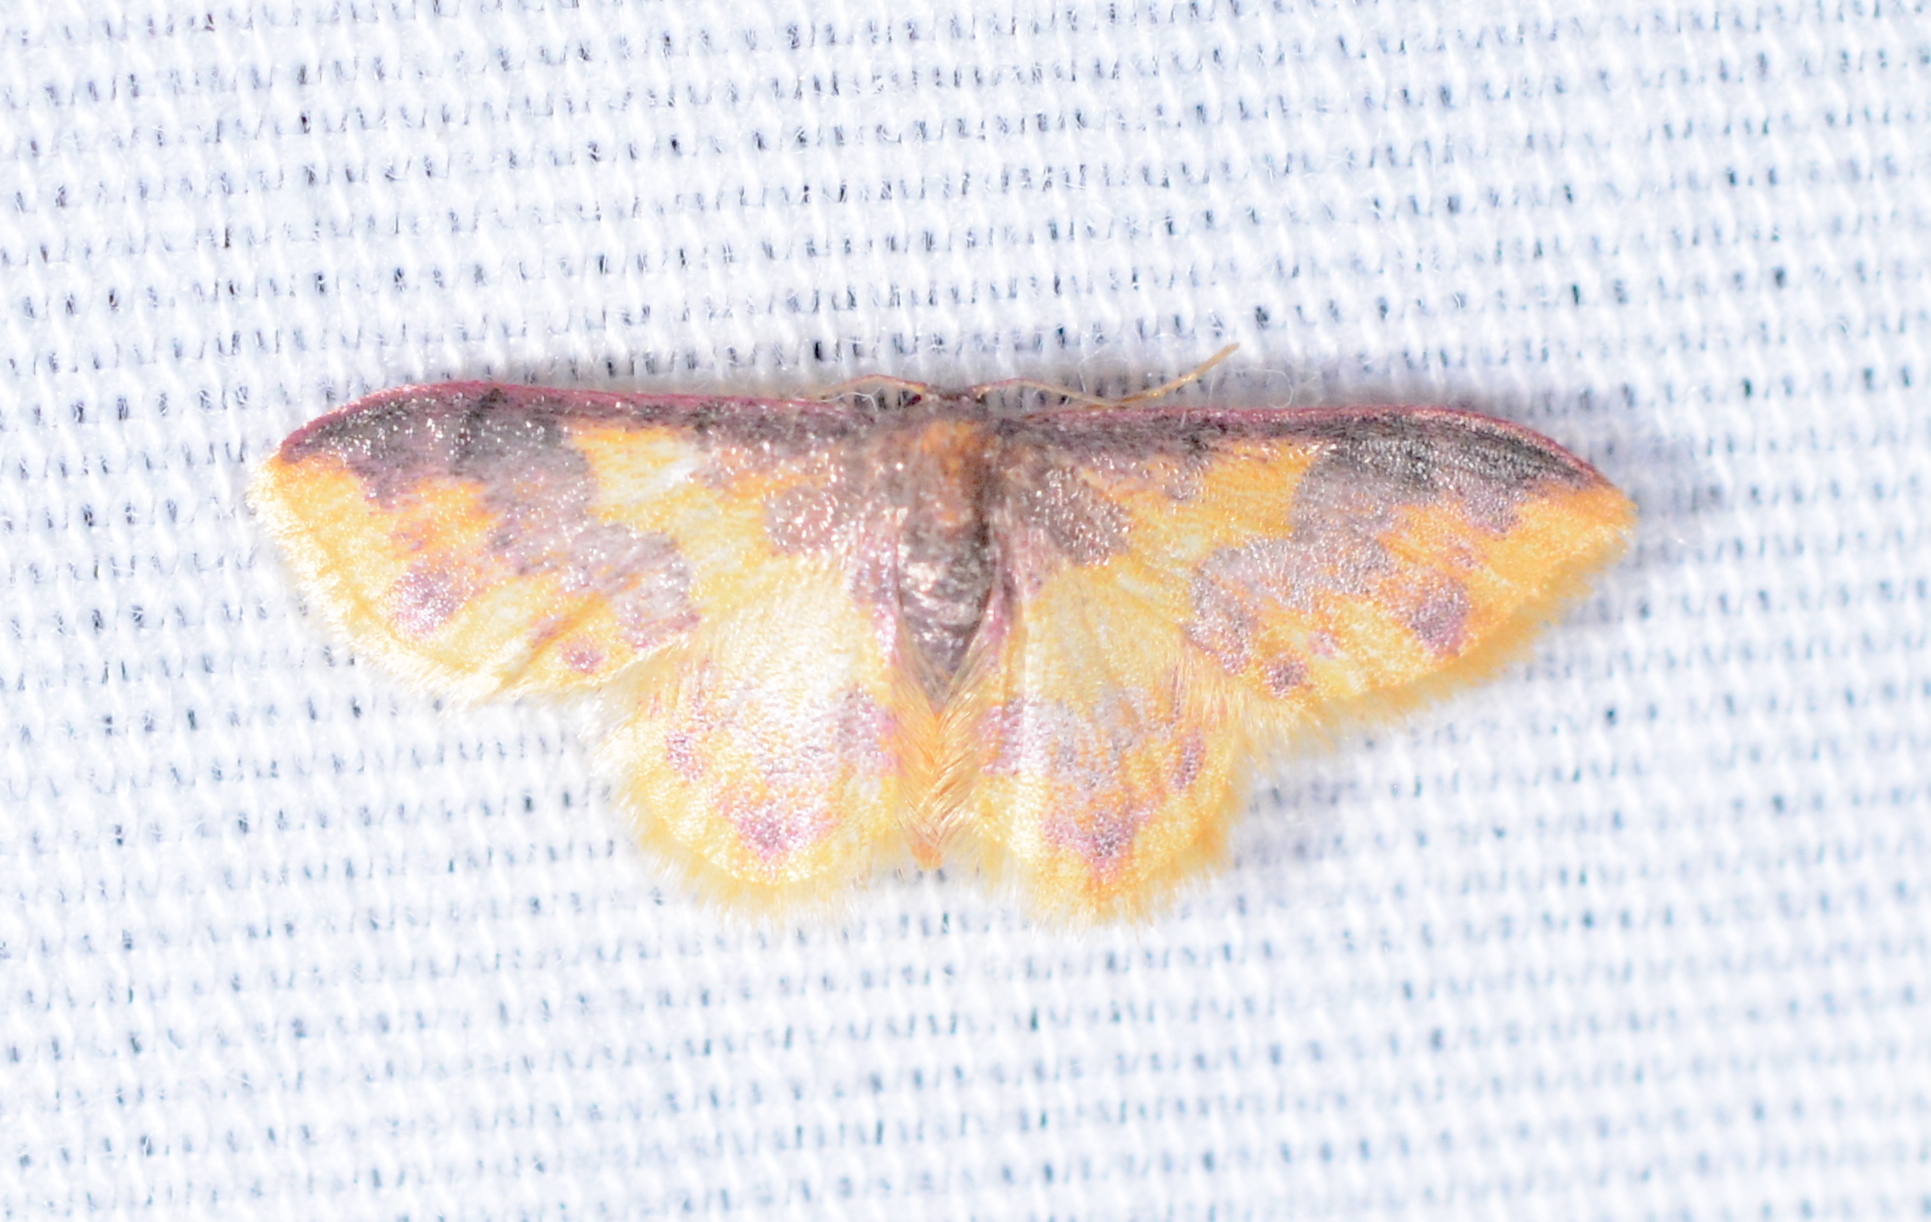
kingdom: Animalia
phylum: Arthropoda
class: Insecta
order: Lepidoptera
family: Geometridae
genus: Lophosis
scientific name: Lophosis labeculata
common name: Stained lophosis moth
